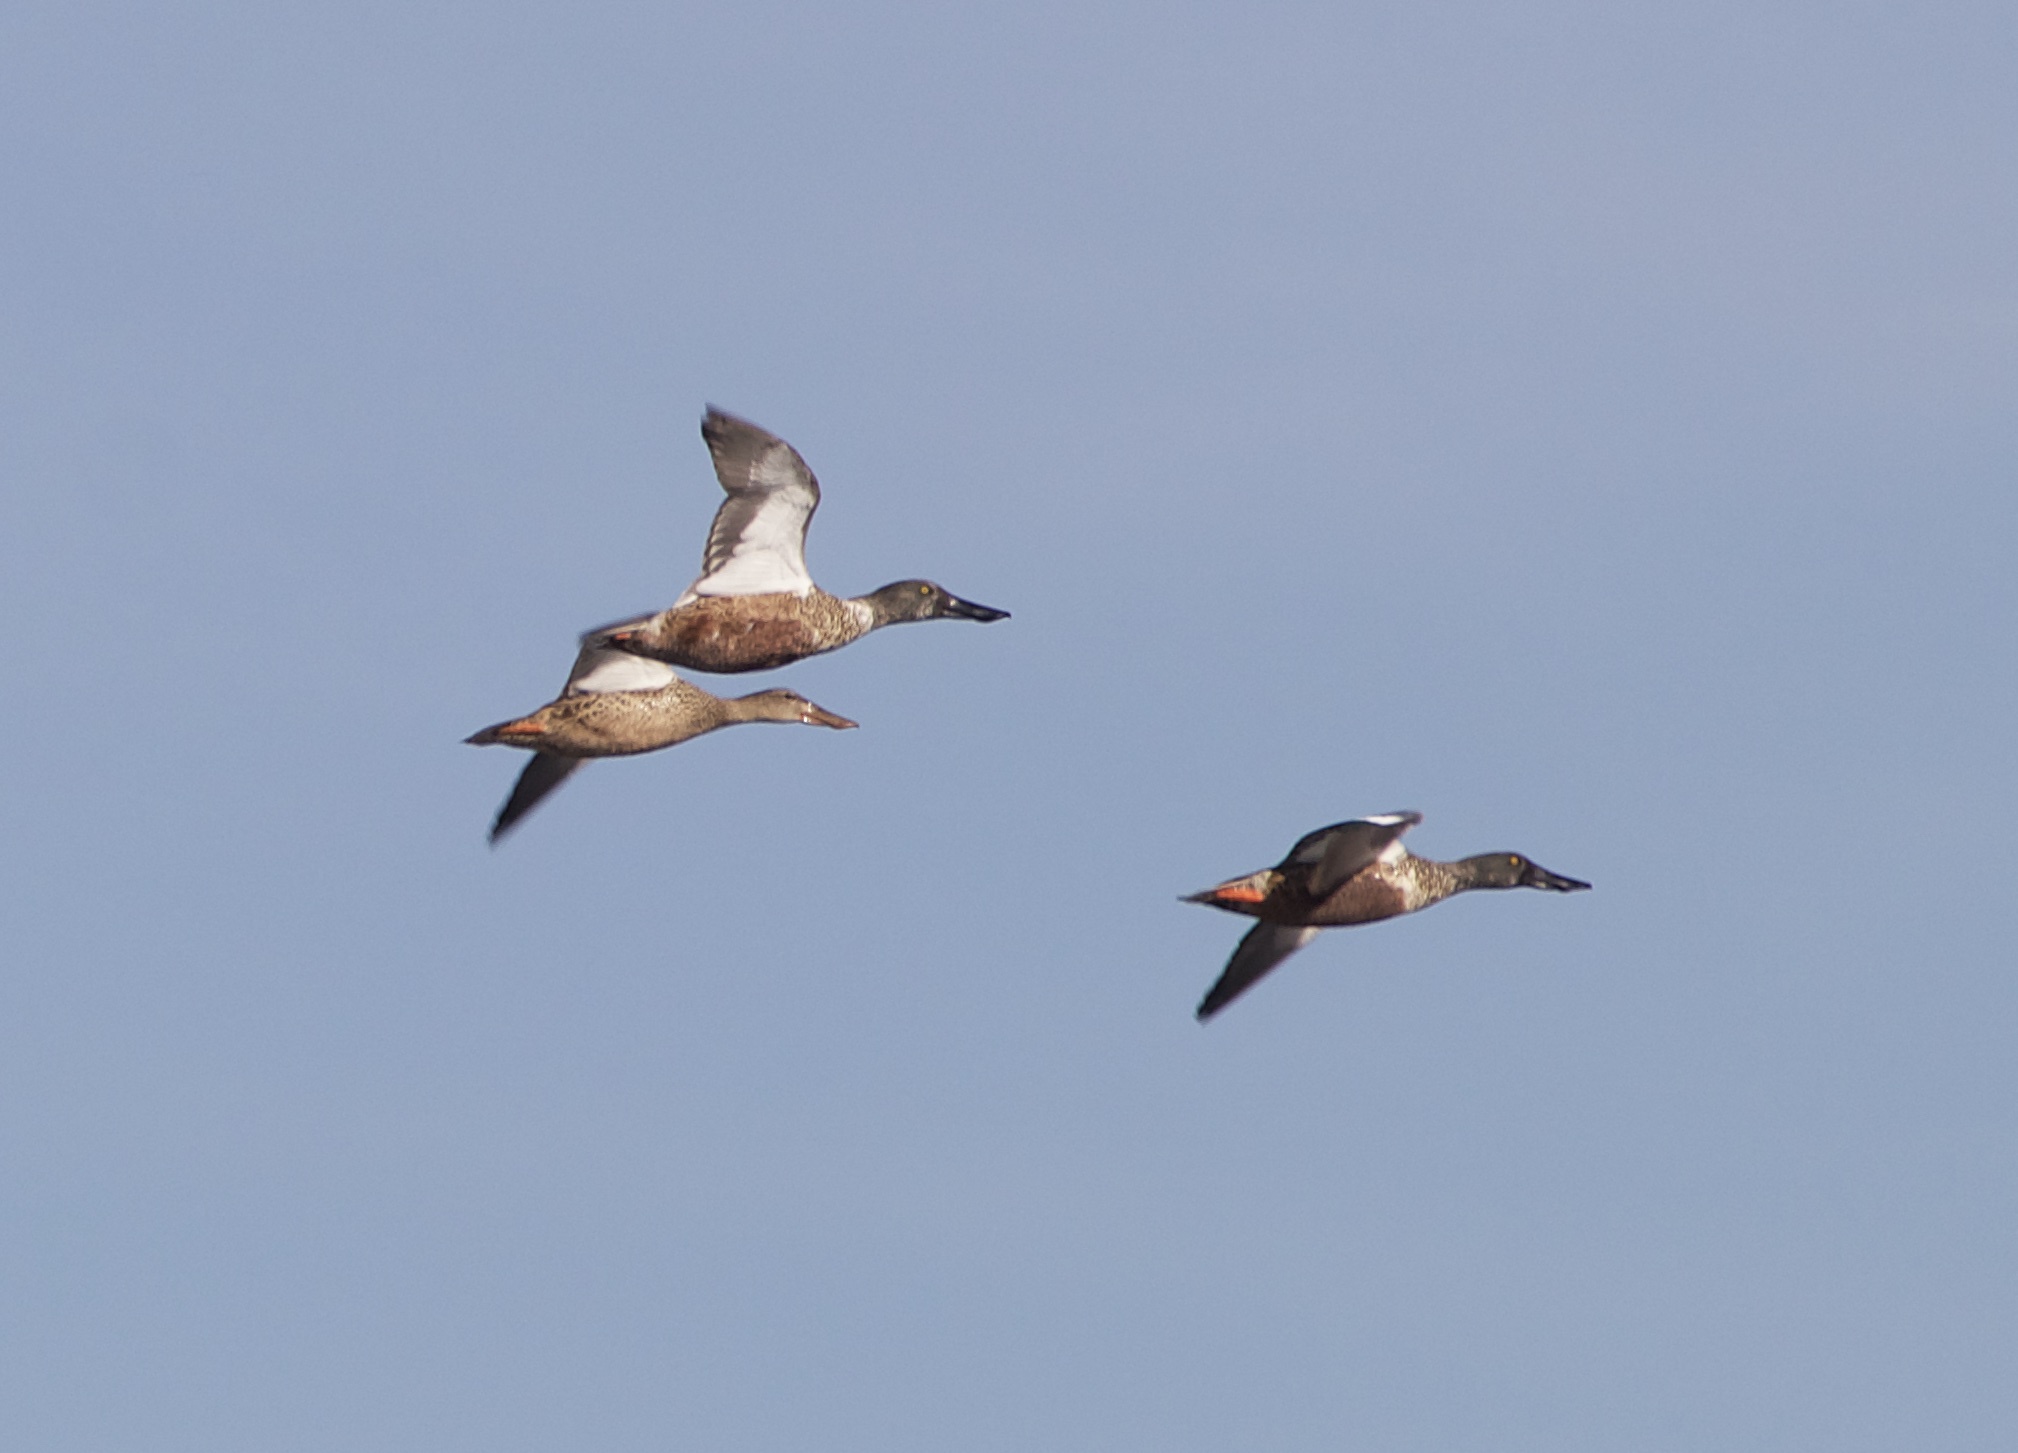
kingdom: Animalia
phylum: Chordata
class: Aves
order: Anseriformes
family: Anatidae
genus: Spatula
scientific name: Spatula clypeata
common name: Northern shoveler
